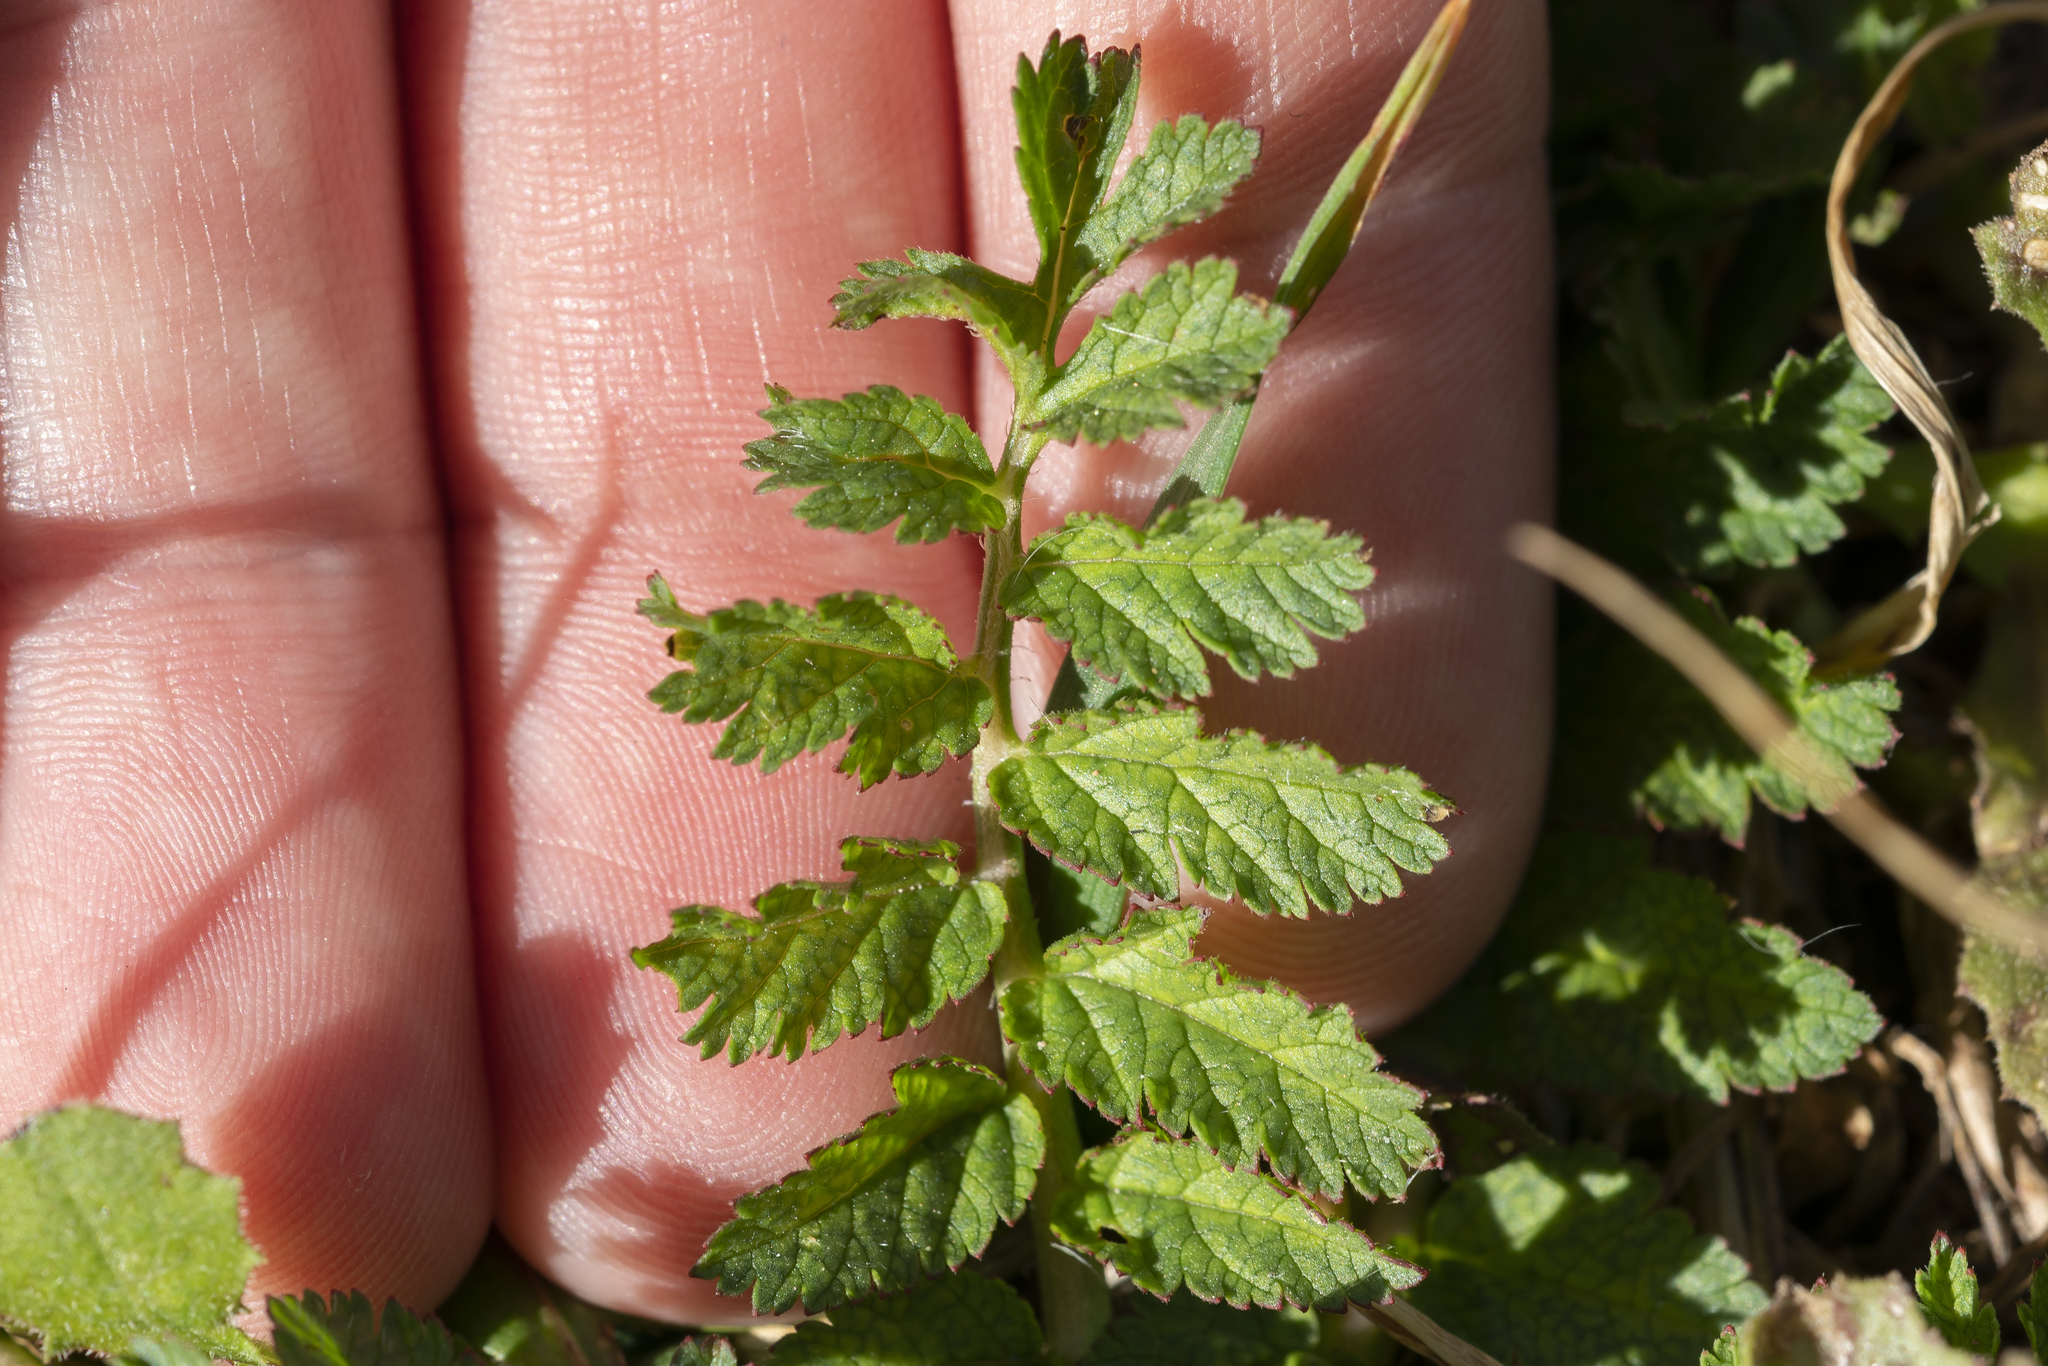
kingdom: Plantae
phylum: Tracheophyta
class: Magnoliopsida
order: Geraniales
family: Geraniaceae
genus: Erodium
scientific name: Erodium moschatum
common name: Musk stork's-bill
